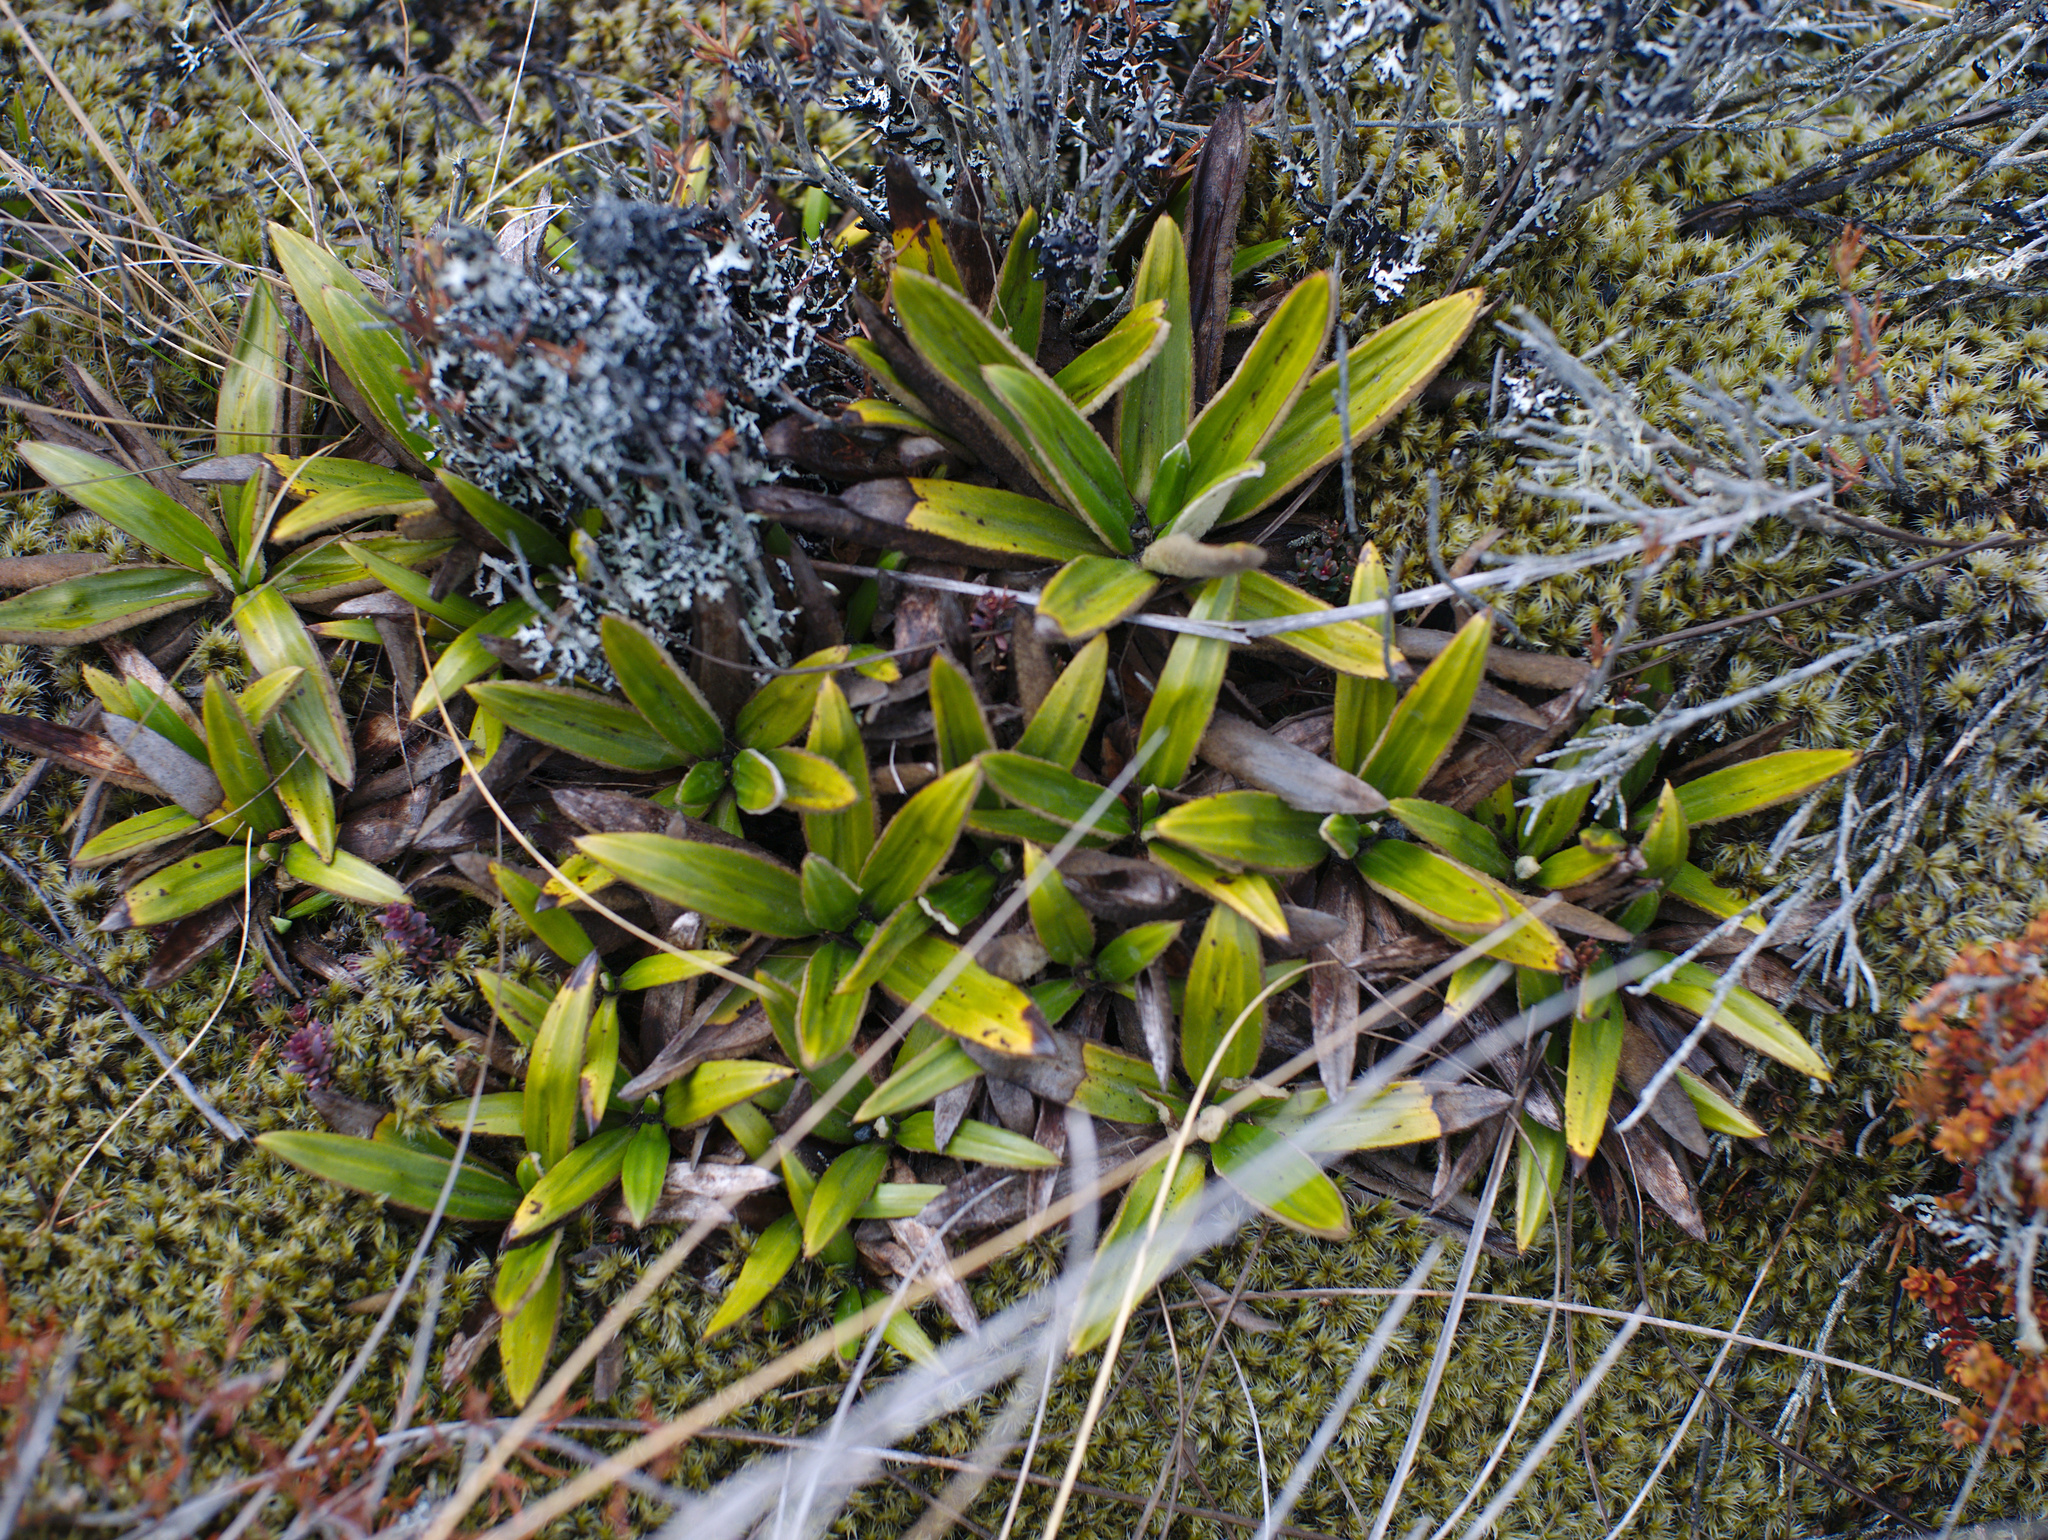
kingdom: Plantae
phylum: Tracheophyta
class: Magnoliopsida
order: Asterales
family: Asteraceae
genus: Celmisia
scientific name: Celmisia spectabilis
